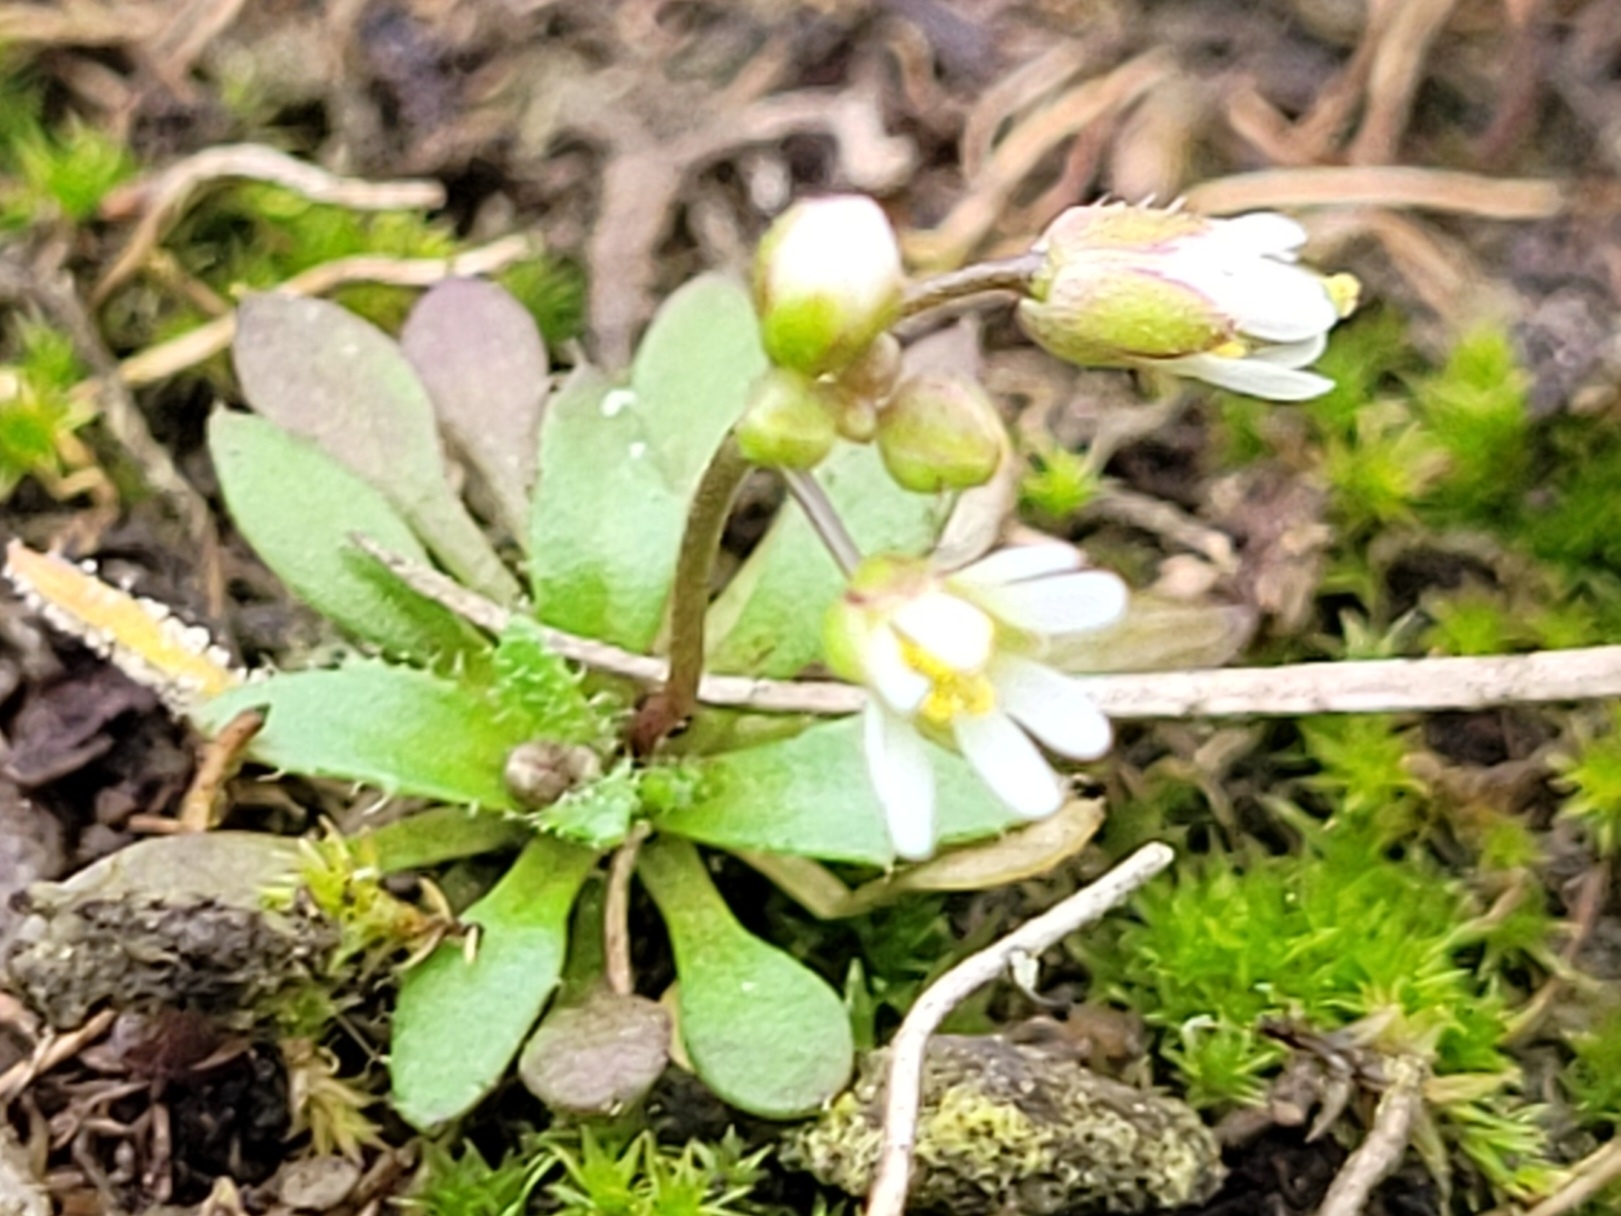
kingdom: Plantae
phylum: Tracheophyta
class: Magnoliopsida
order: Brassicales
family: Brassicaceae
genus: Draba
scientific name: Draba verna
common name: Spring draba
